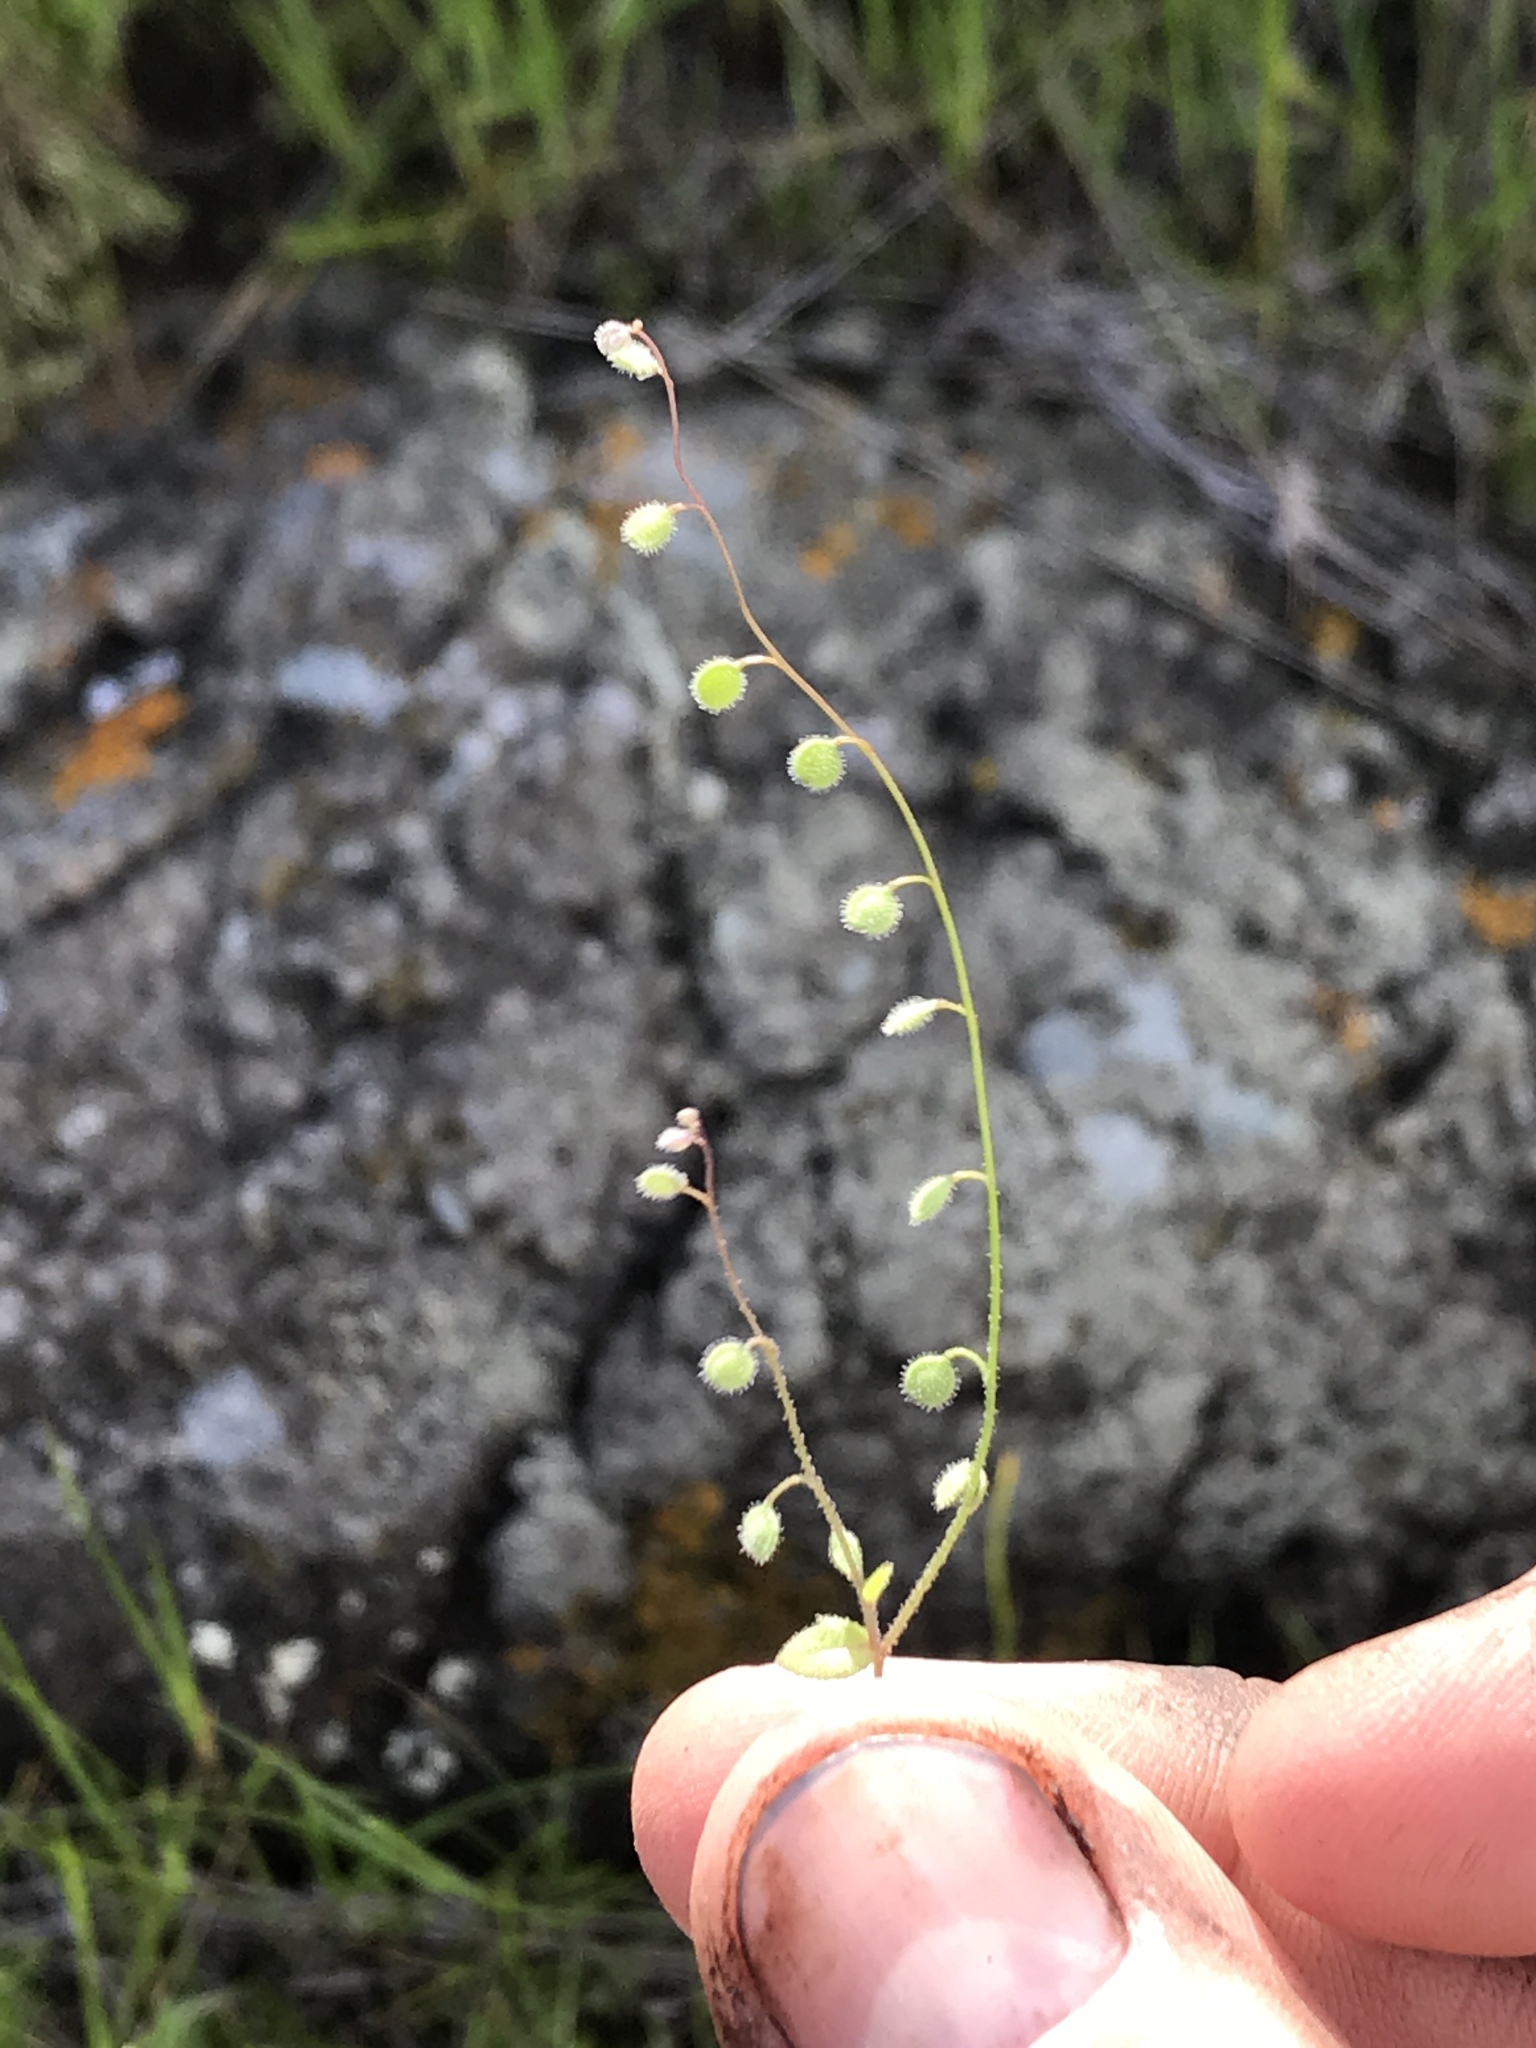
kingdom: Plantae
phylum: Tracheophyta
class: Magnoliopsida
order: Brassicales
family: Brassicaceae
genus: Athysanus
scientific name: Athysanus pusillus
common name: Common sandweed
